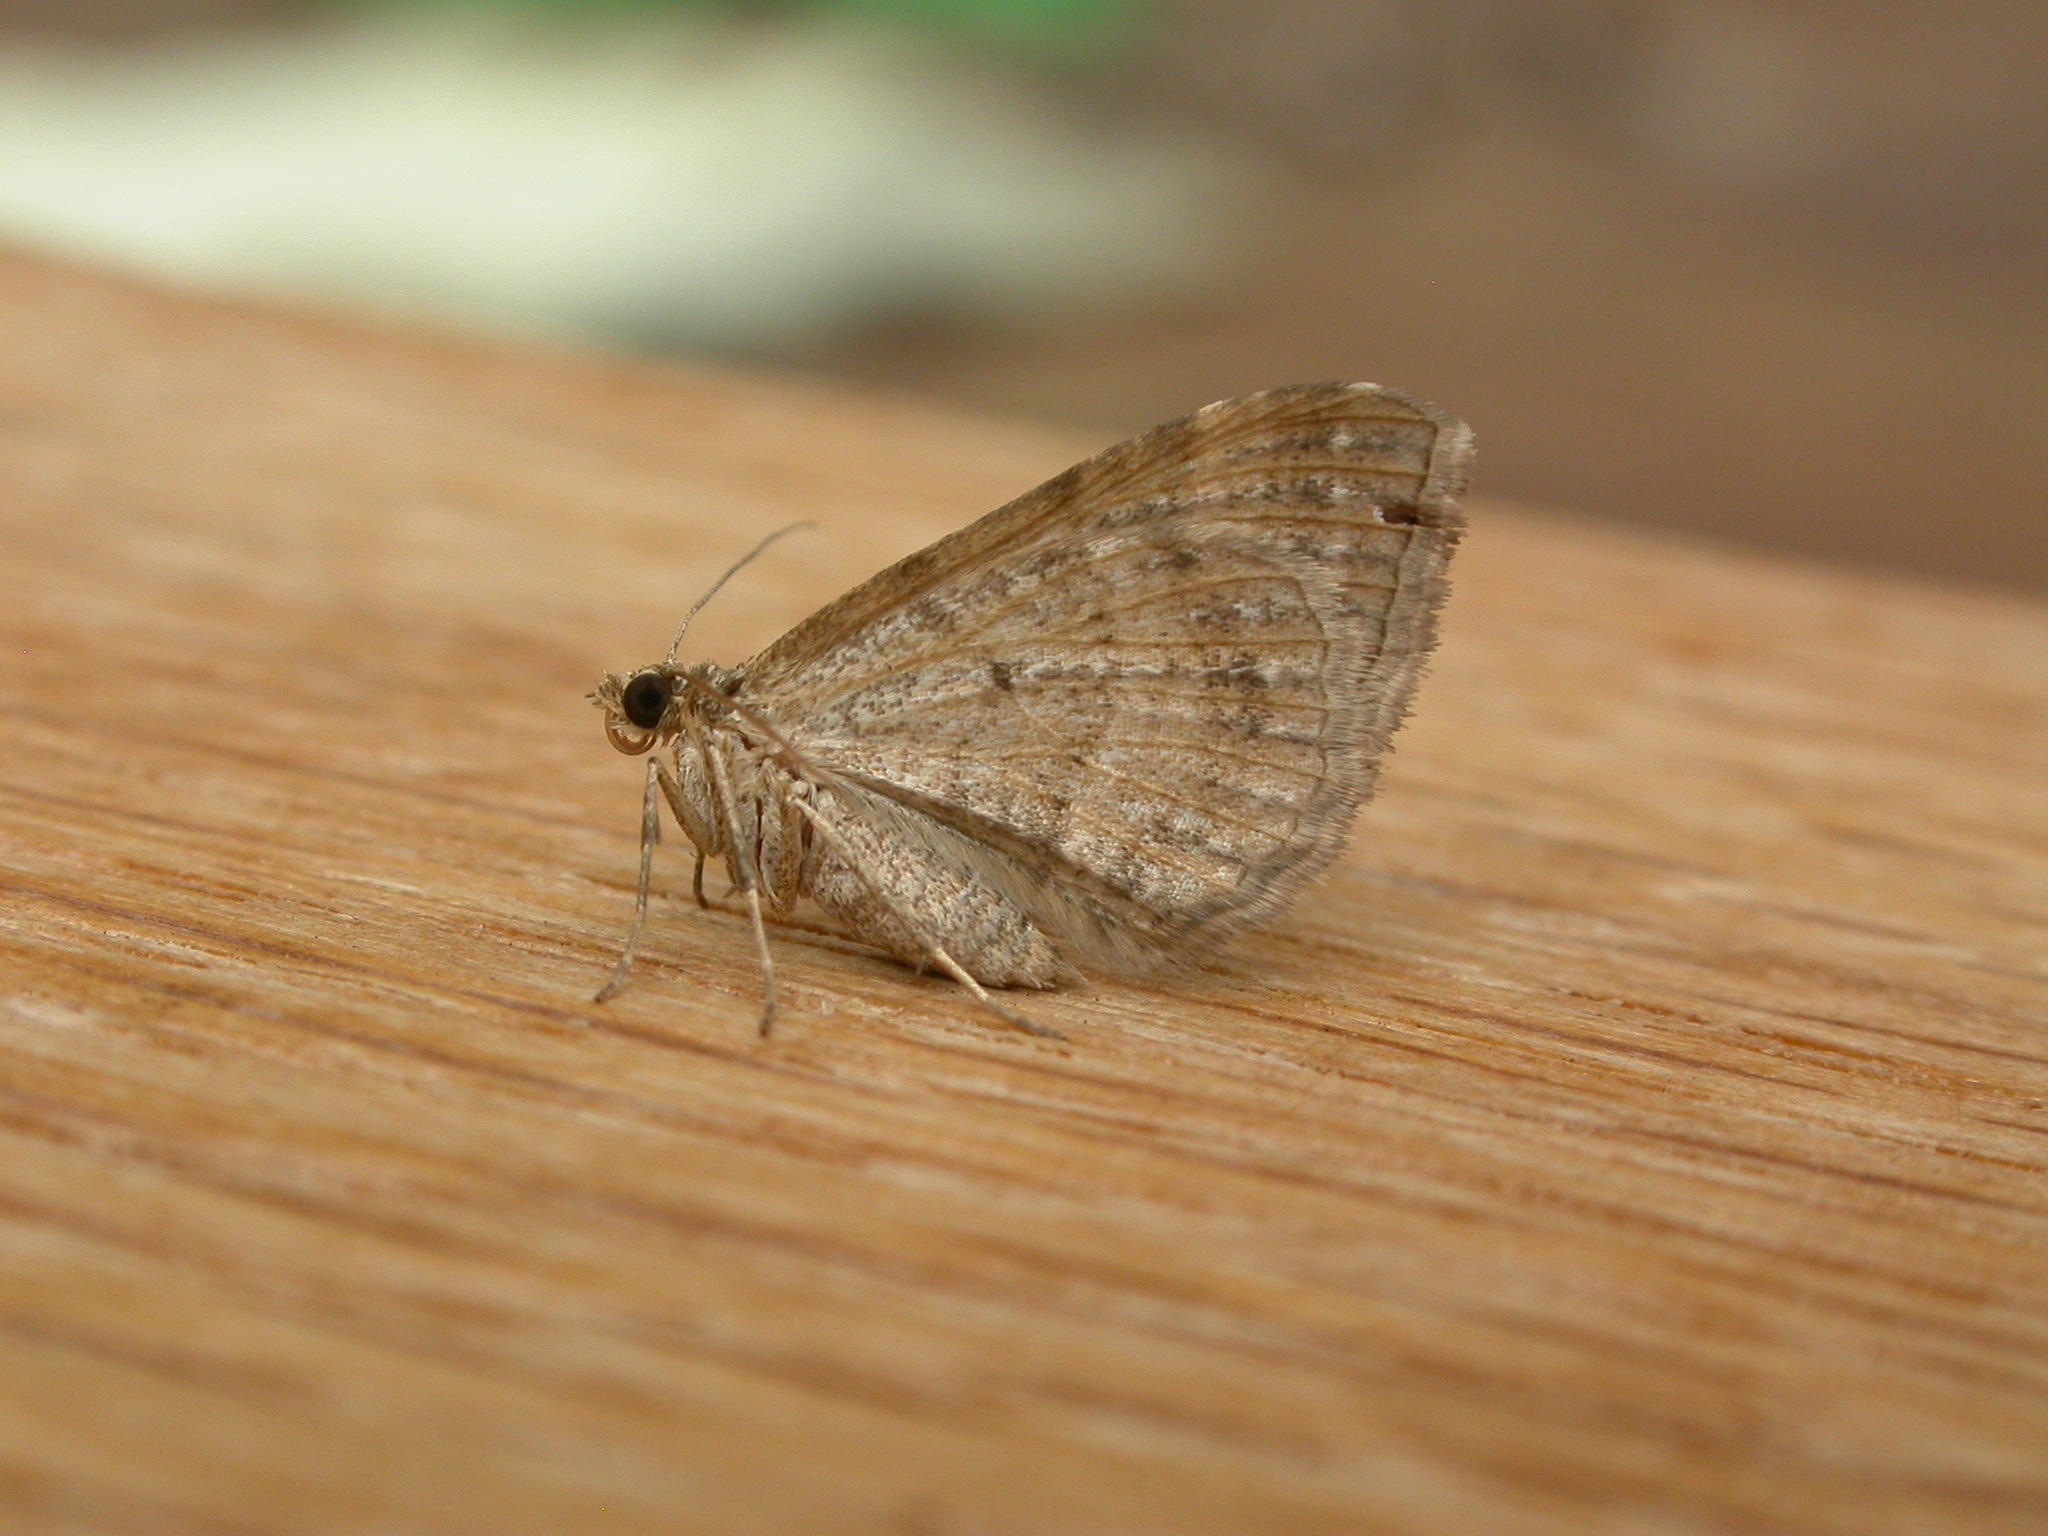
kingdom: Animalia
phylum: Arthropoda
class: Insecta
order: Lepidoptera
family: Geometridae
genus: Chrysolarentia
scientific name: Chrysolarentia subrectaria
